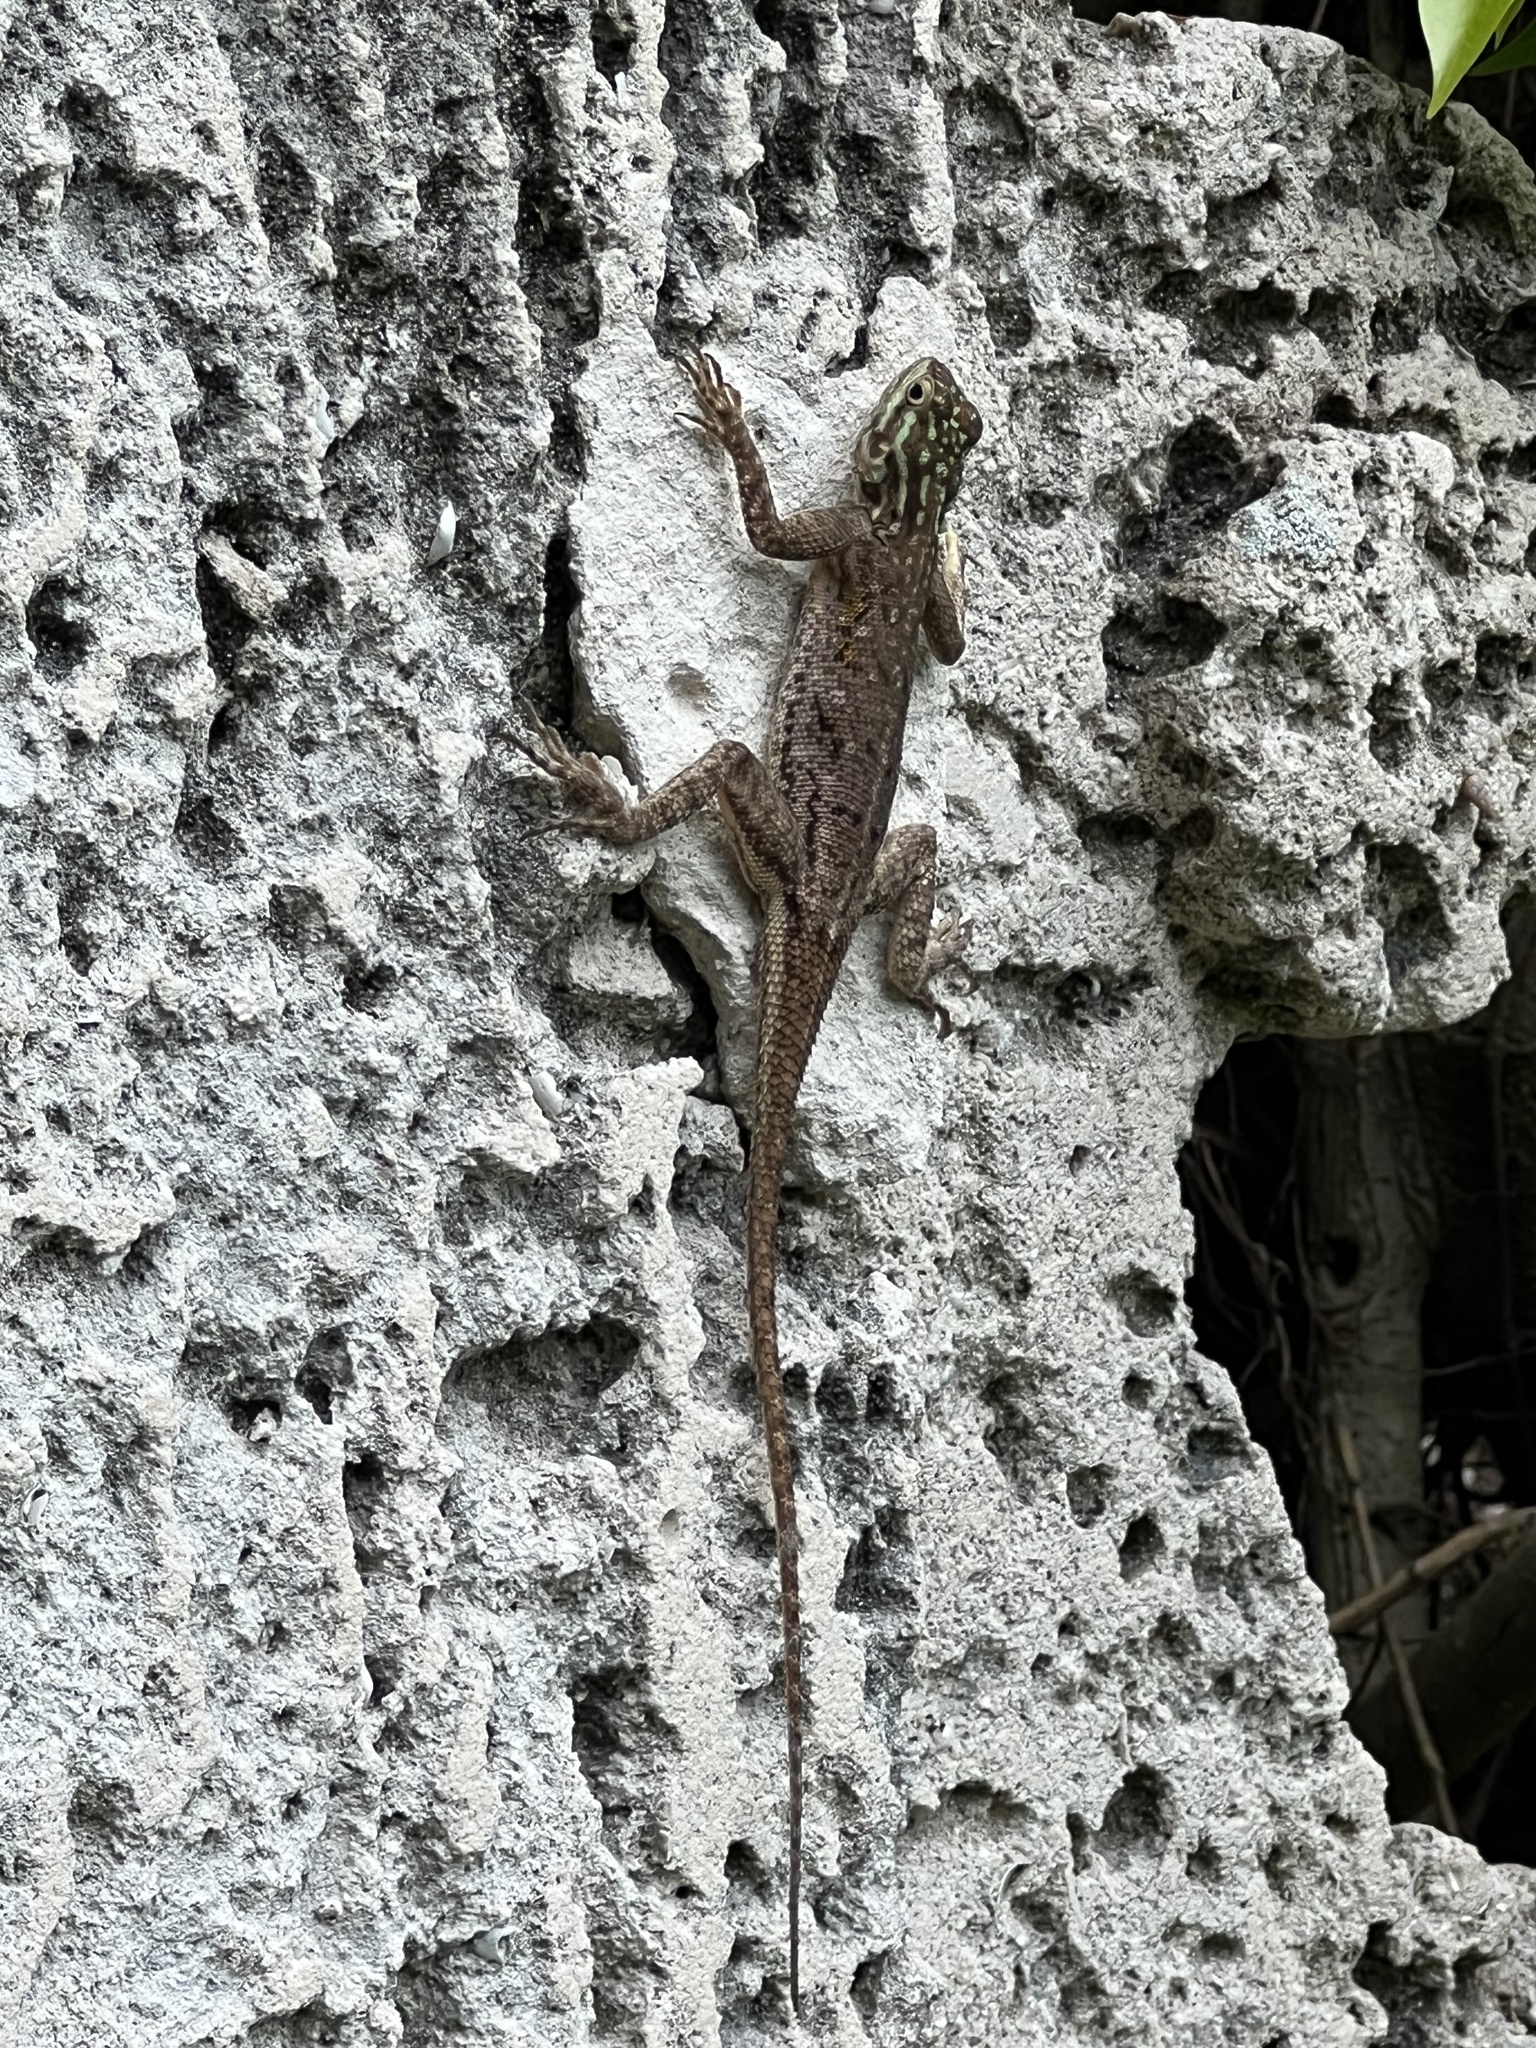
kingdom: Animalia
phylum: Chordata
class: Squamata
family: Agamidae
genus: Agama
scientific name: Agama picticauda
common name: Red-headed agama
